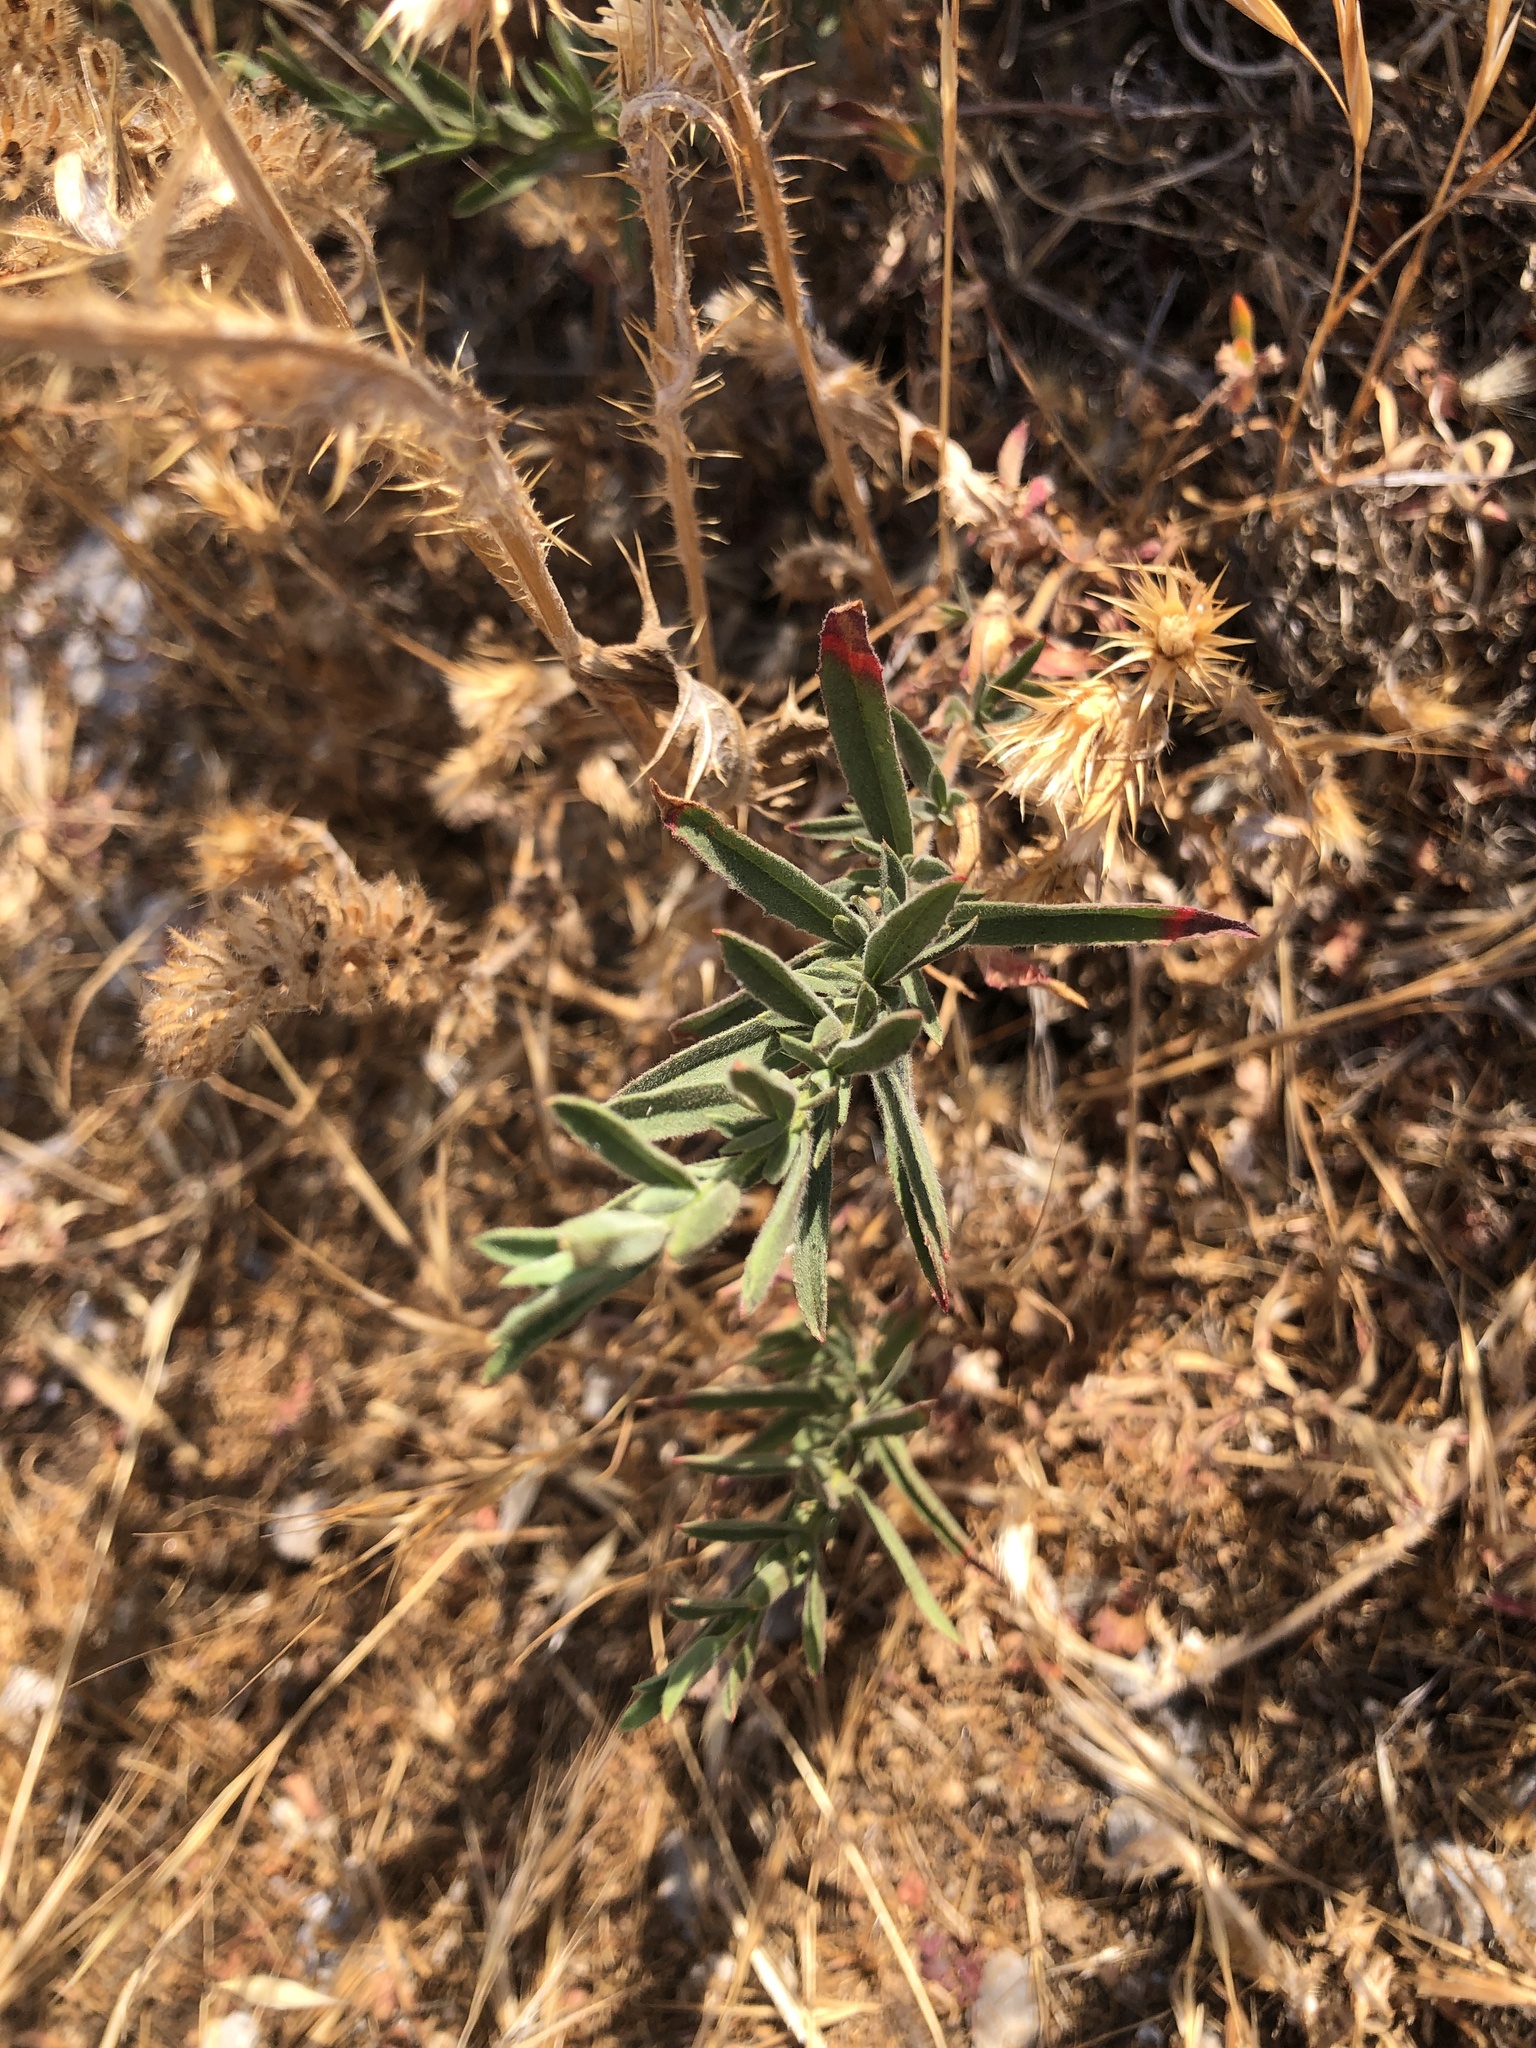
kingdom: Plantae
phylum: Tracheophyta
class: Magnoliopsida
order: Myrtales
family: Onagraceae
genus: Epilobium
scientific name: Epilobium canum
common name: California-fuchsia
